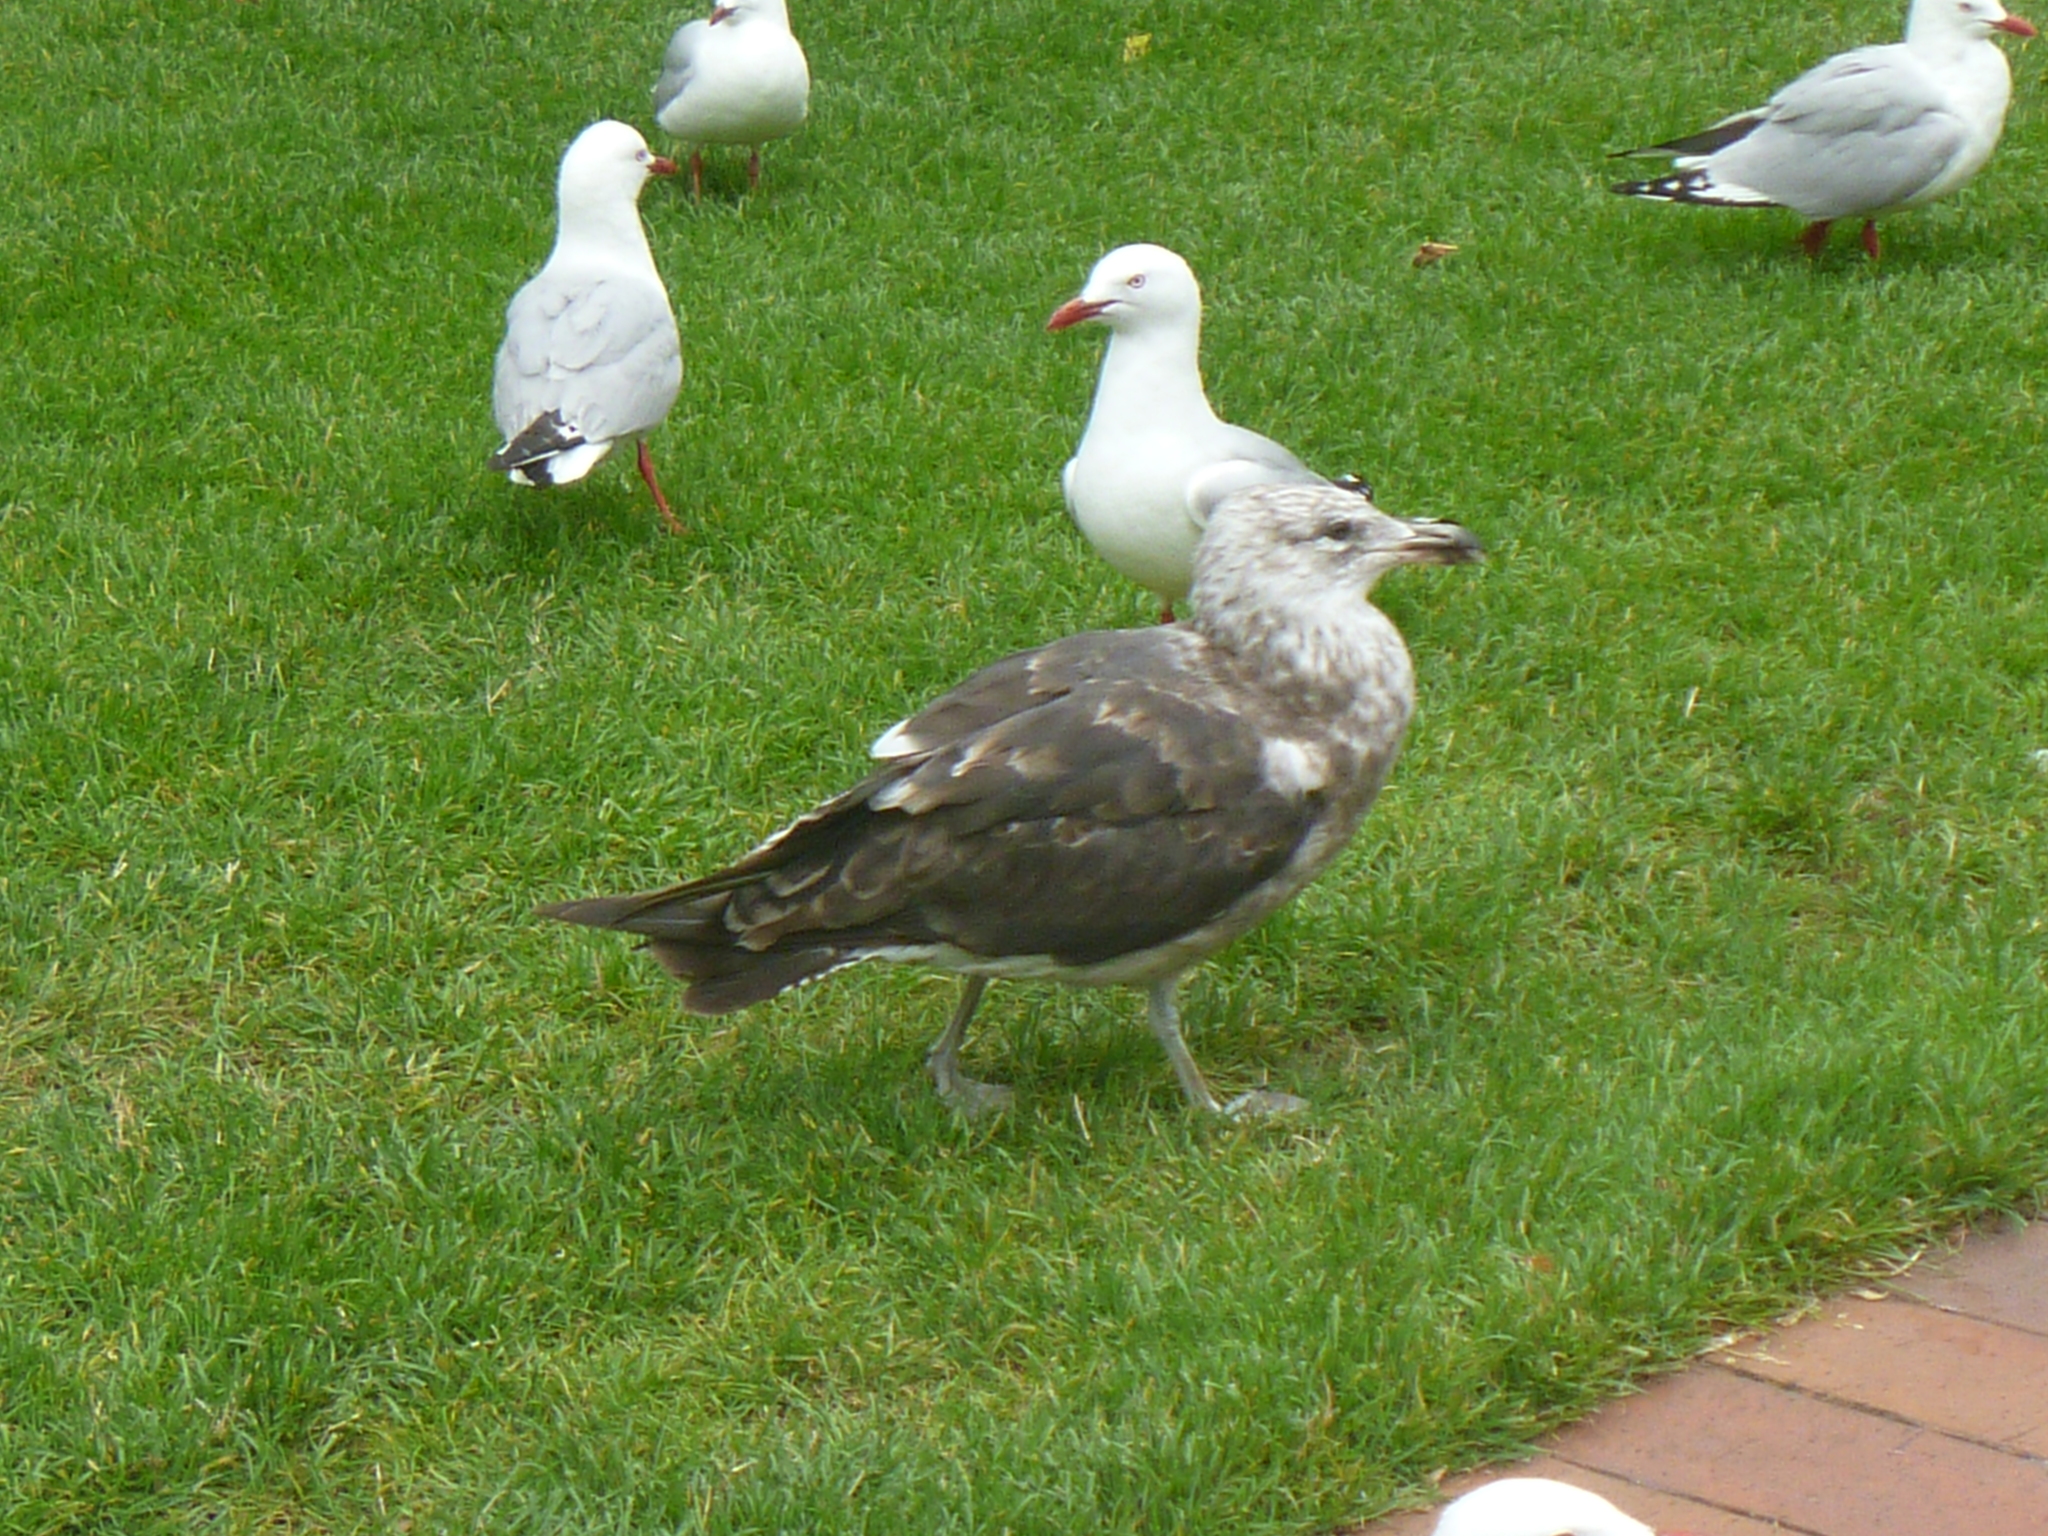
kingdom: Animalia
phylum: Chordata
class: Aves
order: Charadriiformes
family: Laridae
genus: Larus
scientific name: Larus dominicanus
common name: Kelp gull
